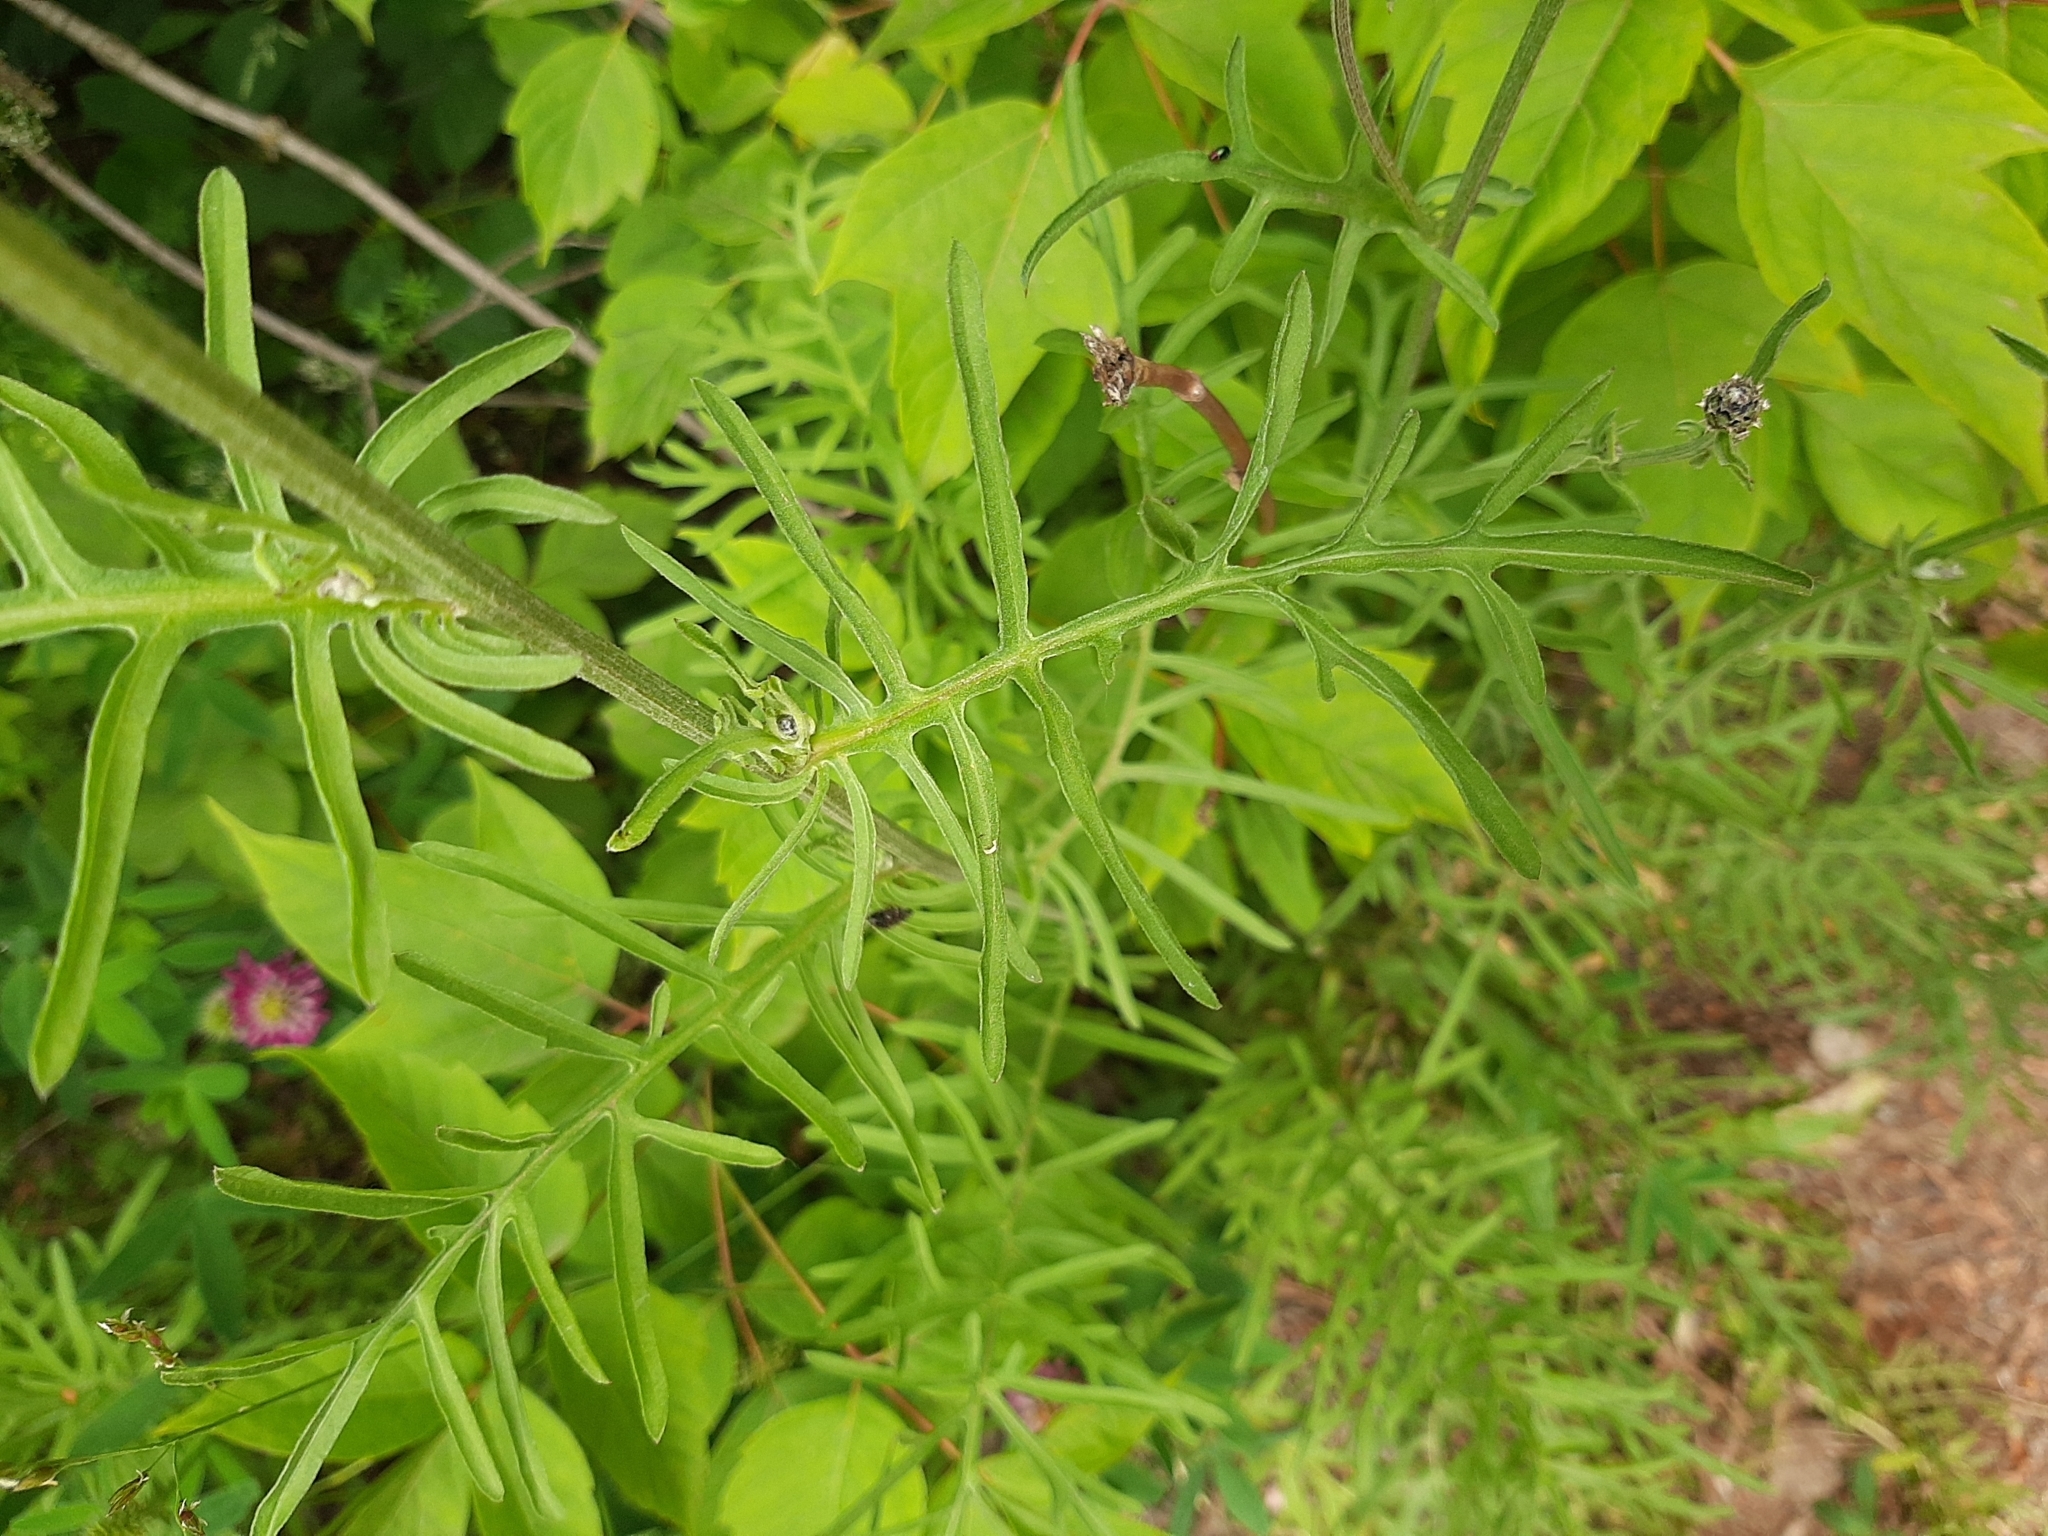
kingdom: Plantae
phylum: Tracheophyta
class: Magnoliopsida
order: Asterales
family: Asteraceae
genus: Centaurea
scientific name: Centaurea scabiosa
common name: Greater knapweed
